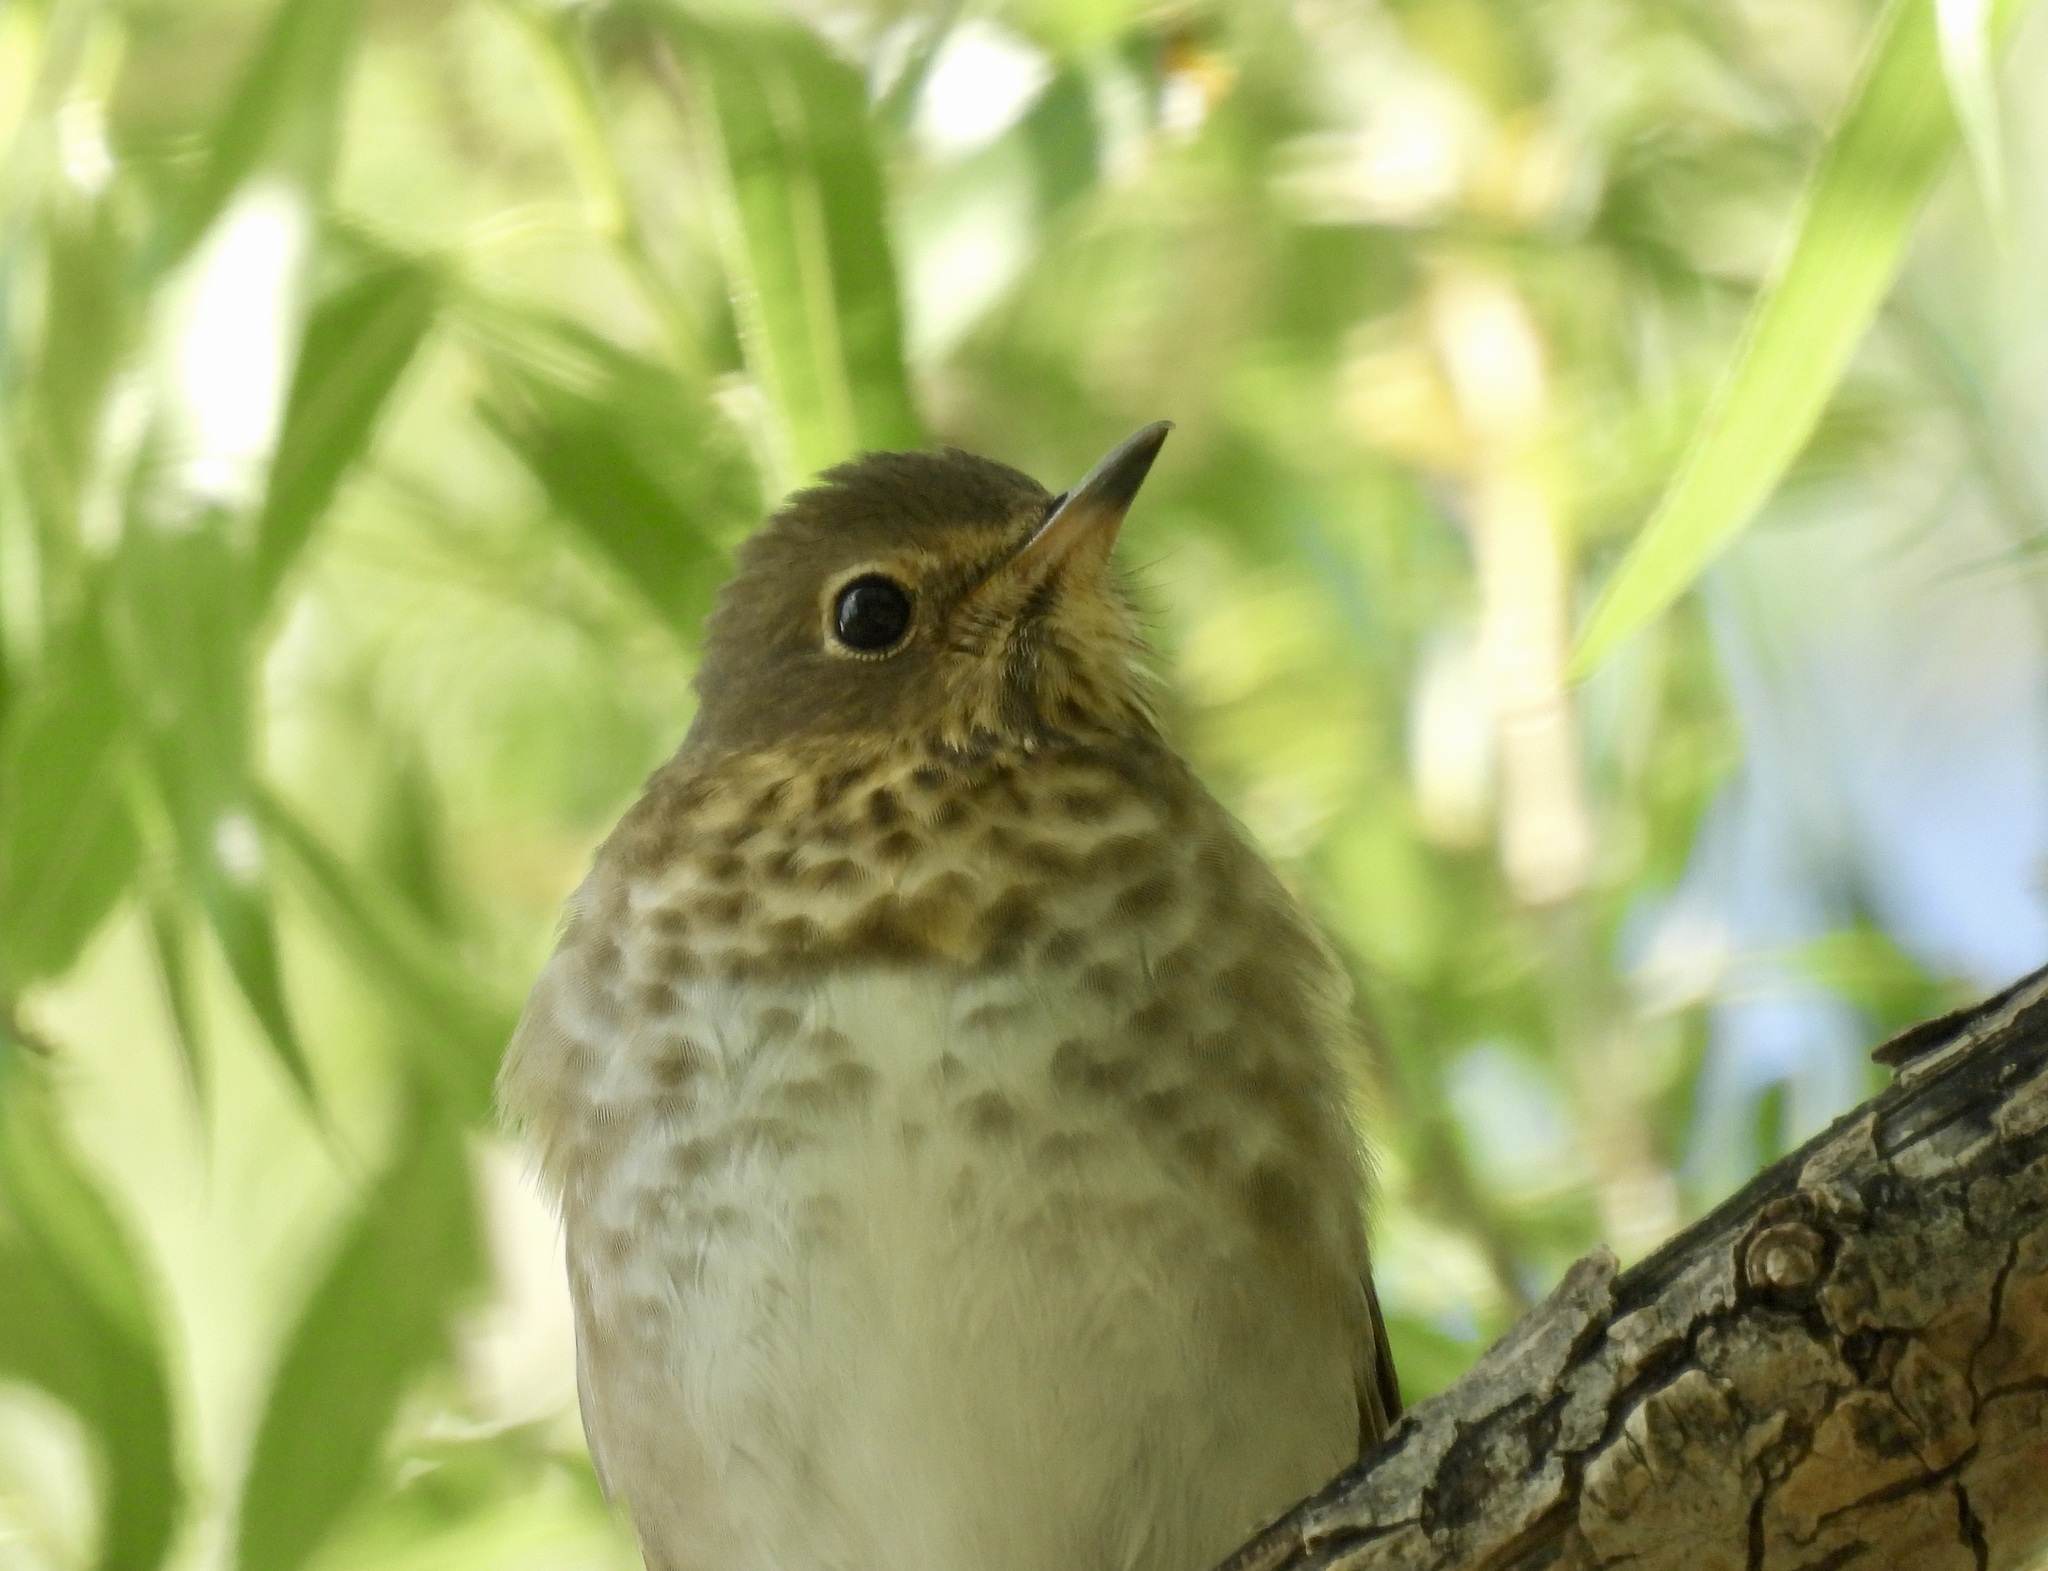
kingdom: Animalia
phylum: Chordata
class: Aves
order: Passeriformes
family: Turdidae
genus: Catharus
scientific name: Catharus ustulatus
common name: Swainson's thrush
